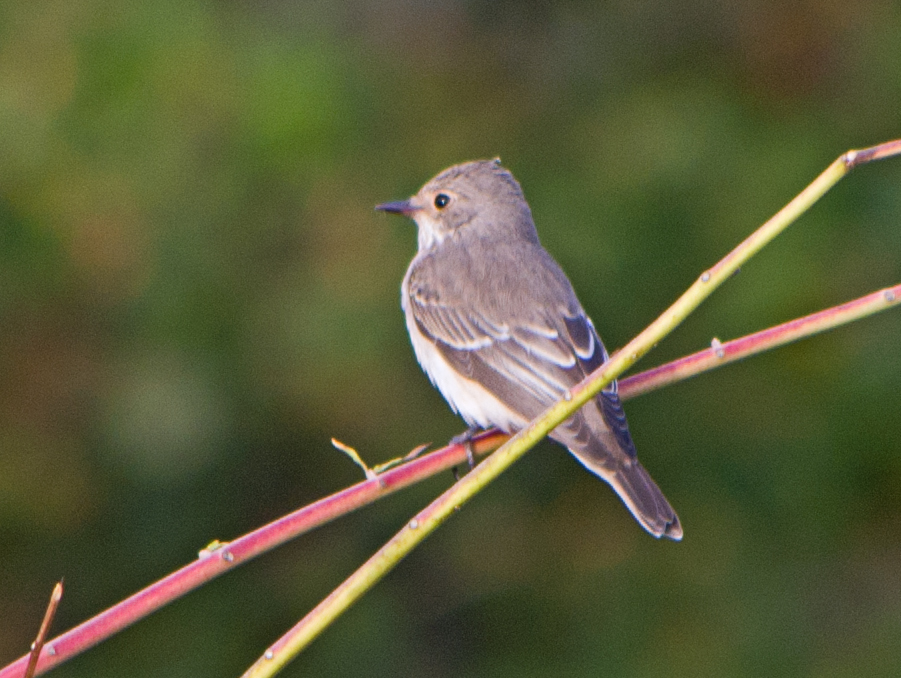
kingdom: Animalia
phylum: Chordata
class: Aves
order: Passeriformes
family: Muscicapidae
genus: Muscicapa
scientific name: Muscicapa striata
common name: Spotted flycatcher
